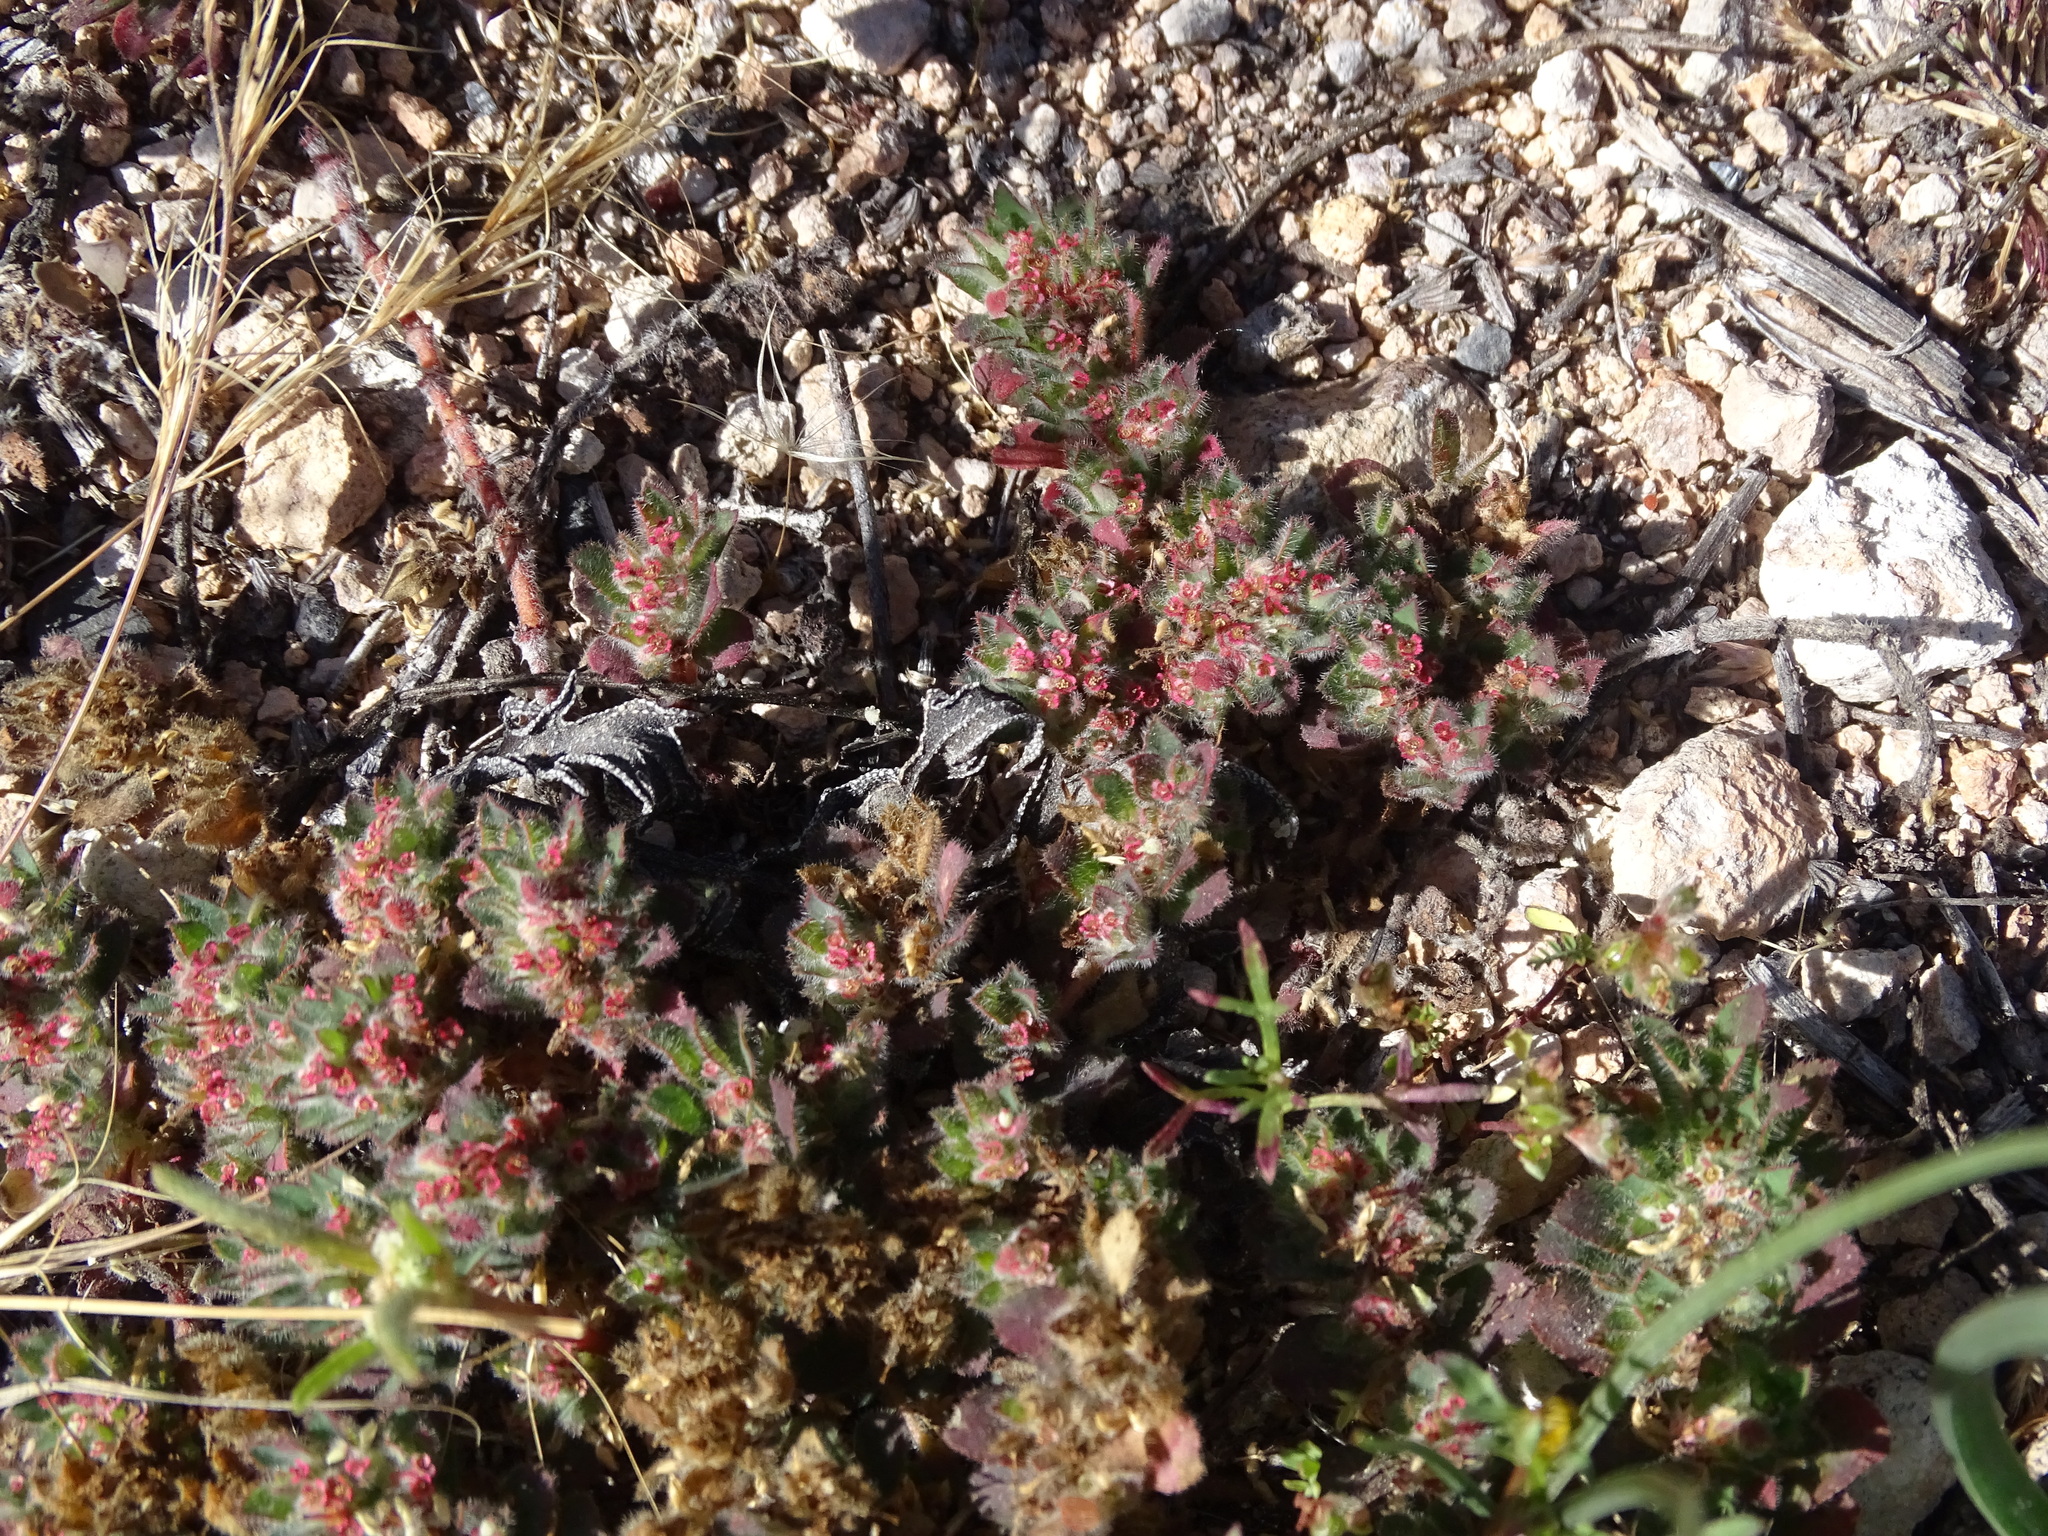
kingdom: Plantae
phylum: Tracheophyta
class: Magnoliopsida
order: Malpighiales
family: Euphorbiaceae
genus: Euphorbia
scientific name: Euphorbia velleriflora
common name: Caliche sandmat
